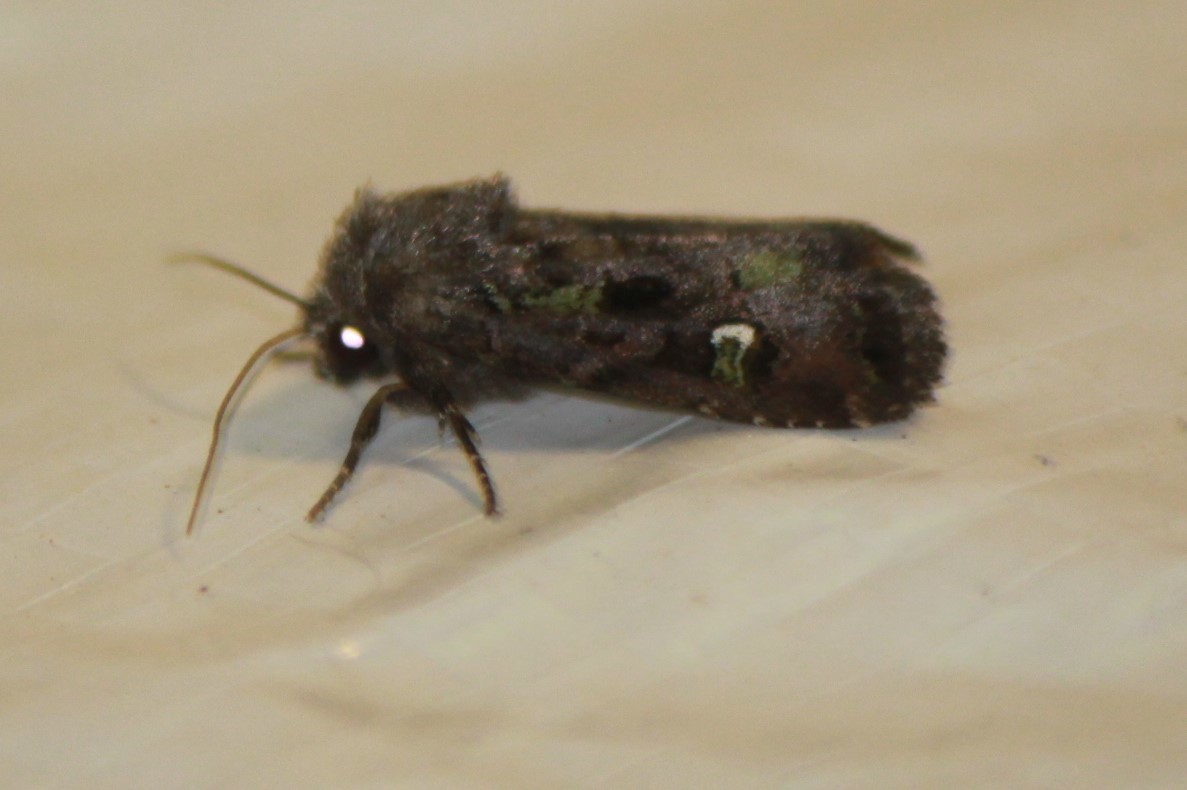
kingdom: Animalia
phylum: Arthropoda
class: Insecta
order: Lepidoptera
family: Noctuidae
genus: Lacinipolia
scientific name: Lacinipolia renigera
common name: Kidney-spotted minor
